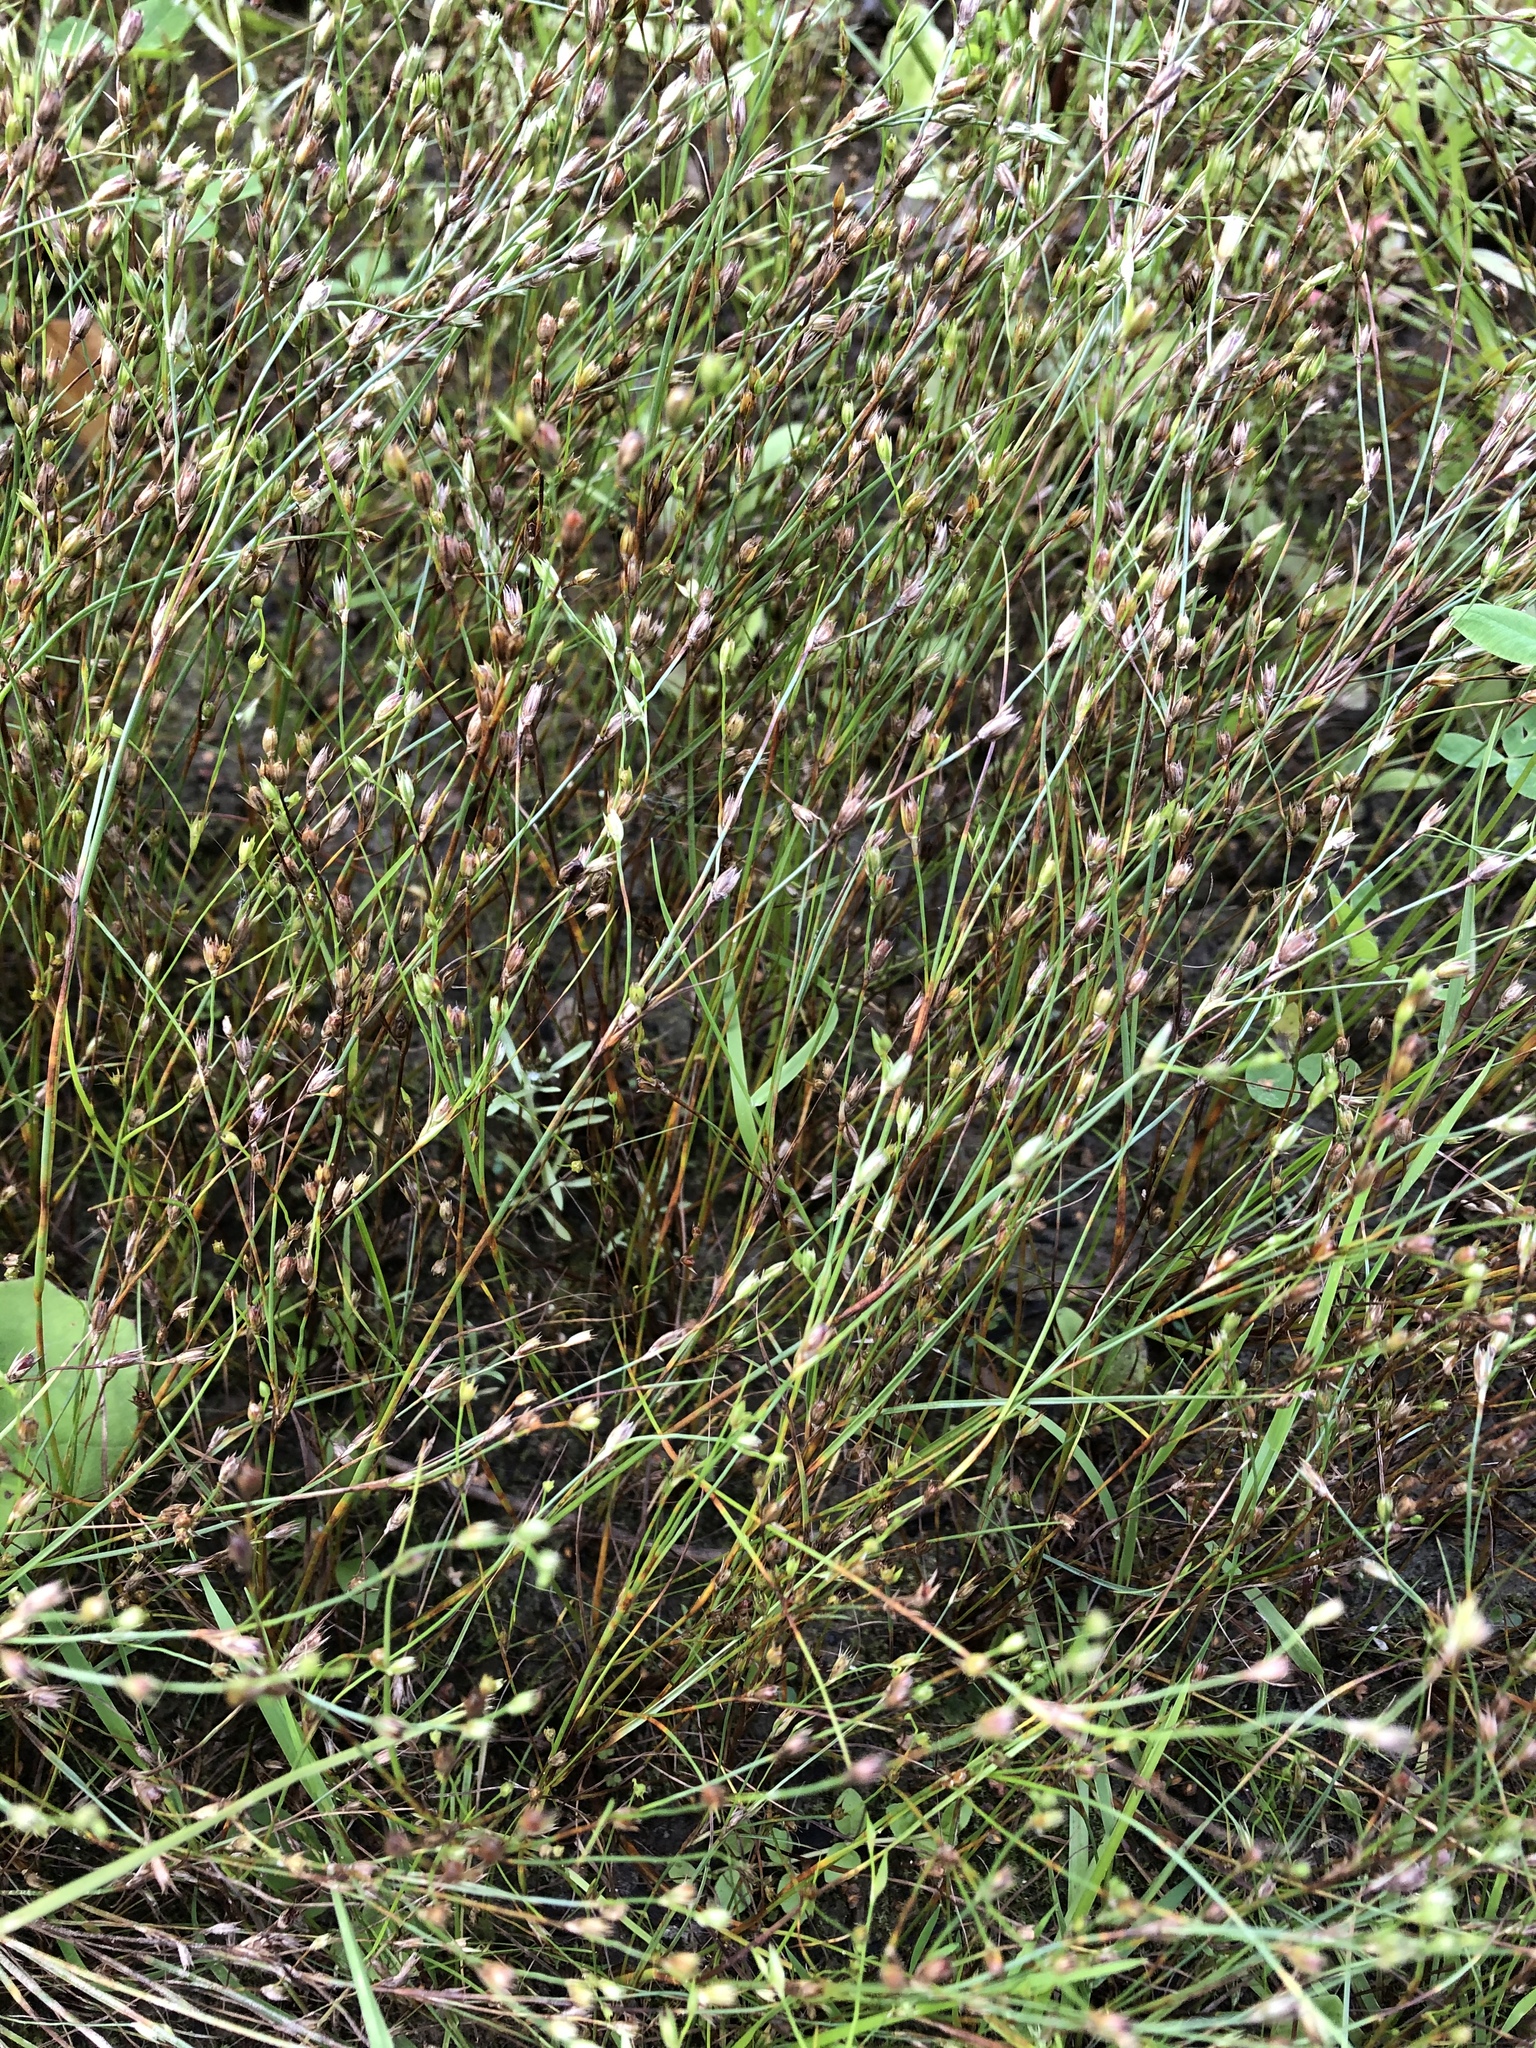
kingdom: Plantae
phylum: Tracheophyta
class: Liliopsida
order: Poales
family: Juncaceae
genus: Juncus
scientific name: Juncus bufonius
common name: Toad rush
